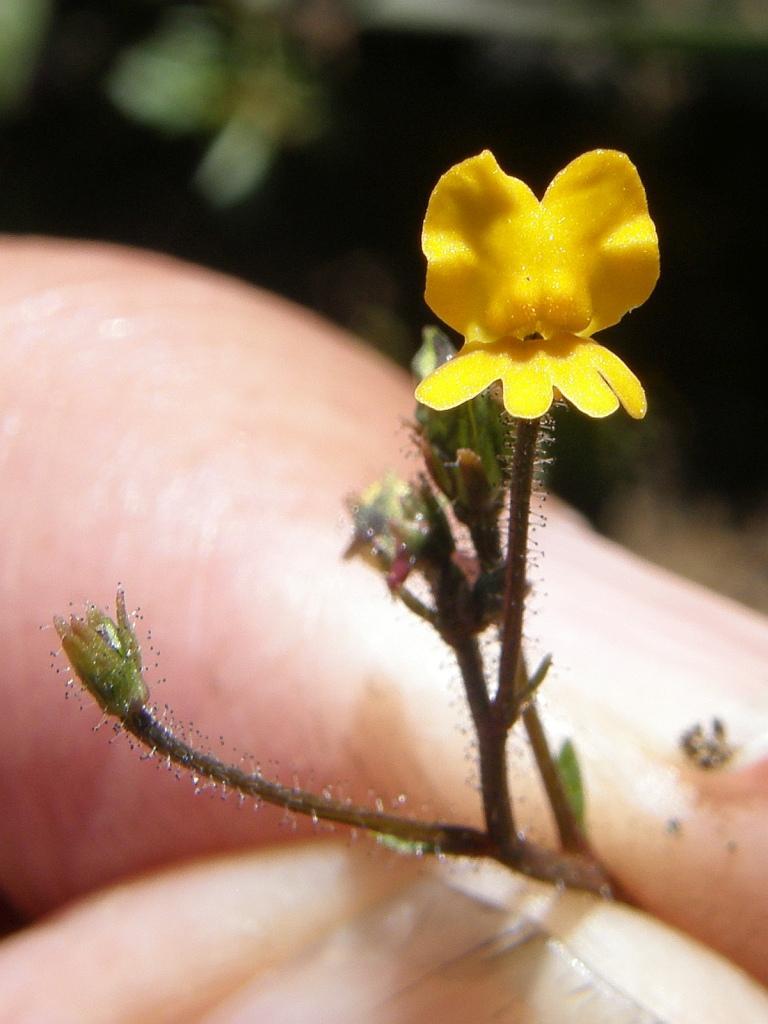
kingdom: Plantae
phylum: Tracheophyta
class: Magnoliopsida
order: Lamiales
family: Scrophulariaceae
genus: Nemesia
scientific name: Nemesia pinnata
